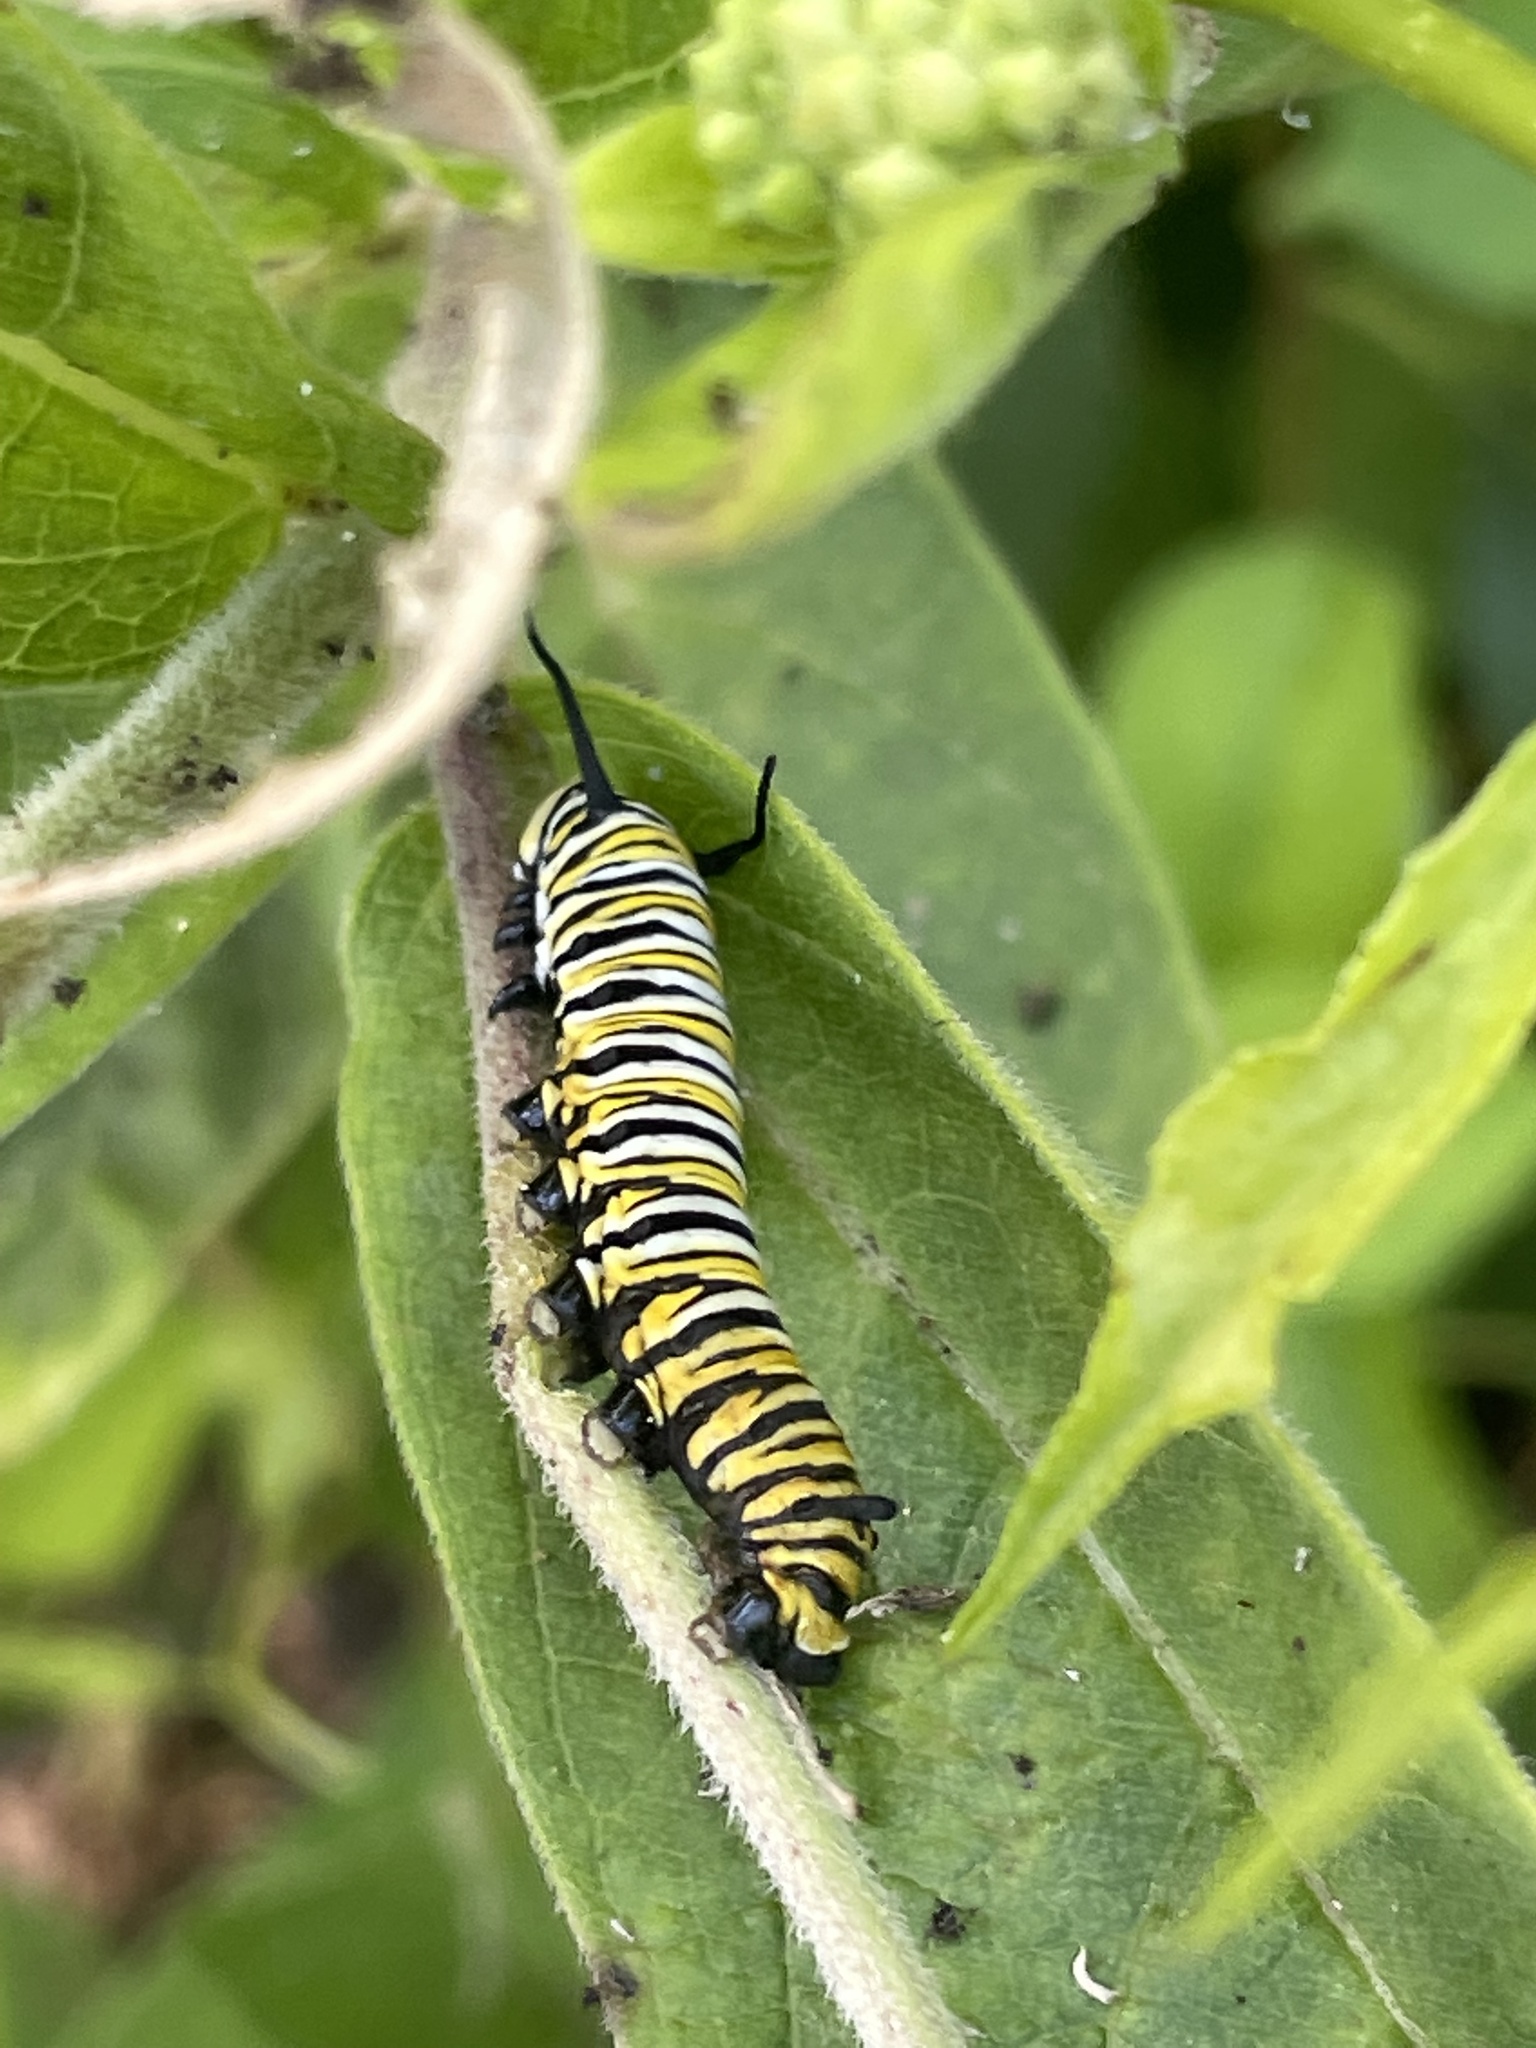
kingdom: Animalia
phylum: Arthropoda
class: Insecta
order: Lepidoptera
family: Nymphalidae
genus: Danaus
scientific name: Danaus plexippus
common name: Monarch
